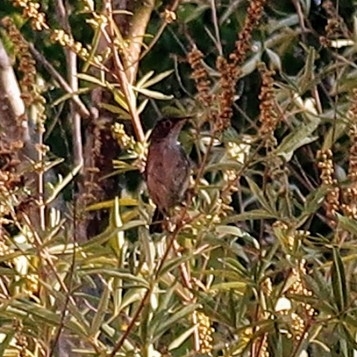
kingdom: Animalia
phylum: Chordata
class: Aves
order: Passeriformes
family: Sylviidae
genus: Curruca
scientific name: Curruca melanocephala
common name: Sardinian warbler
